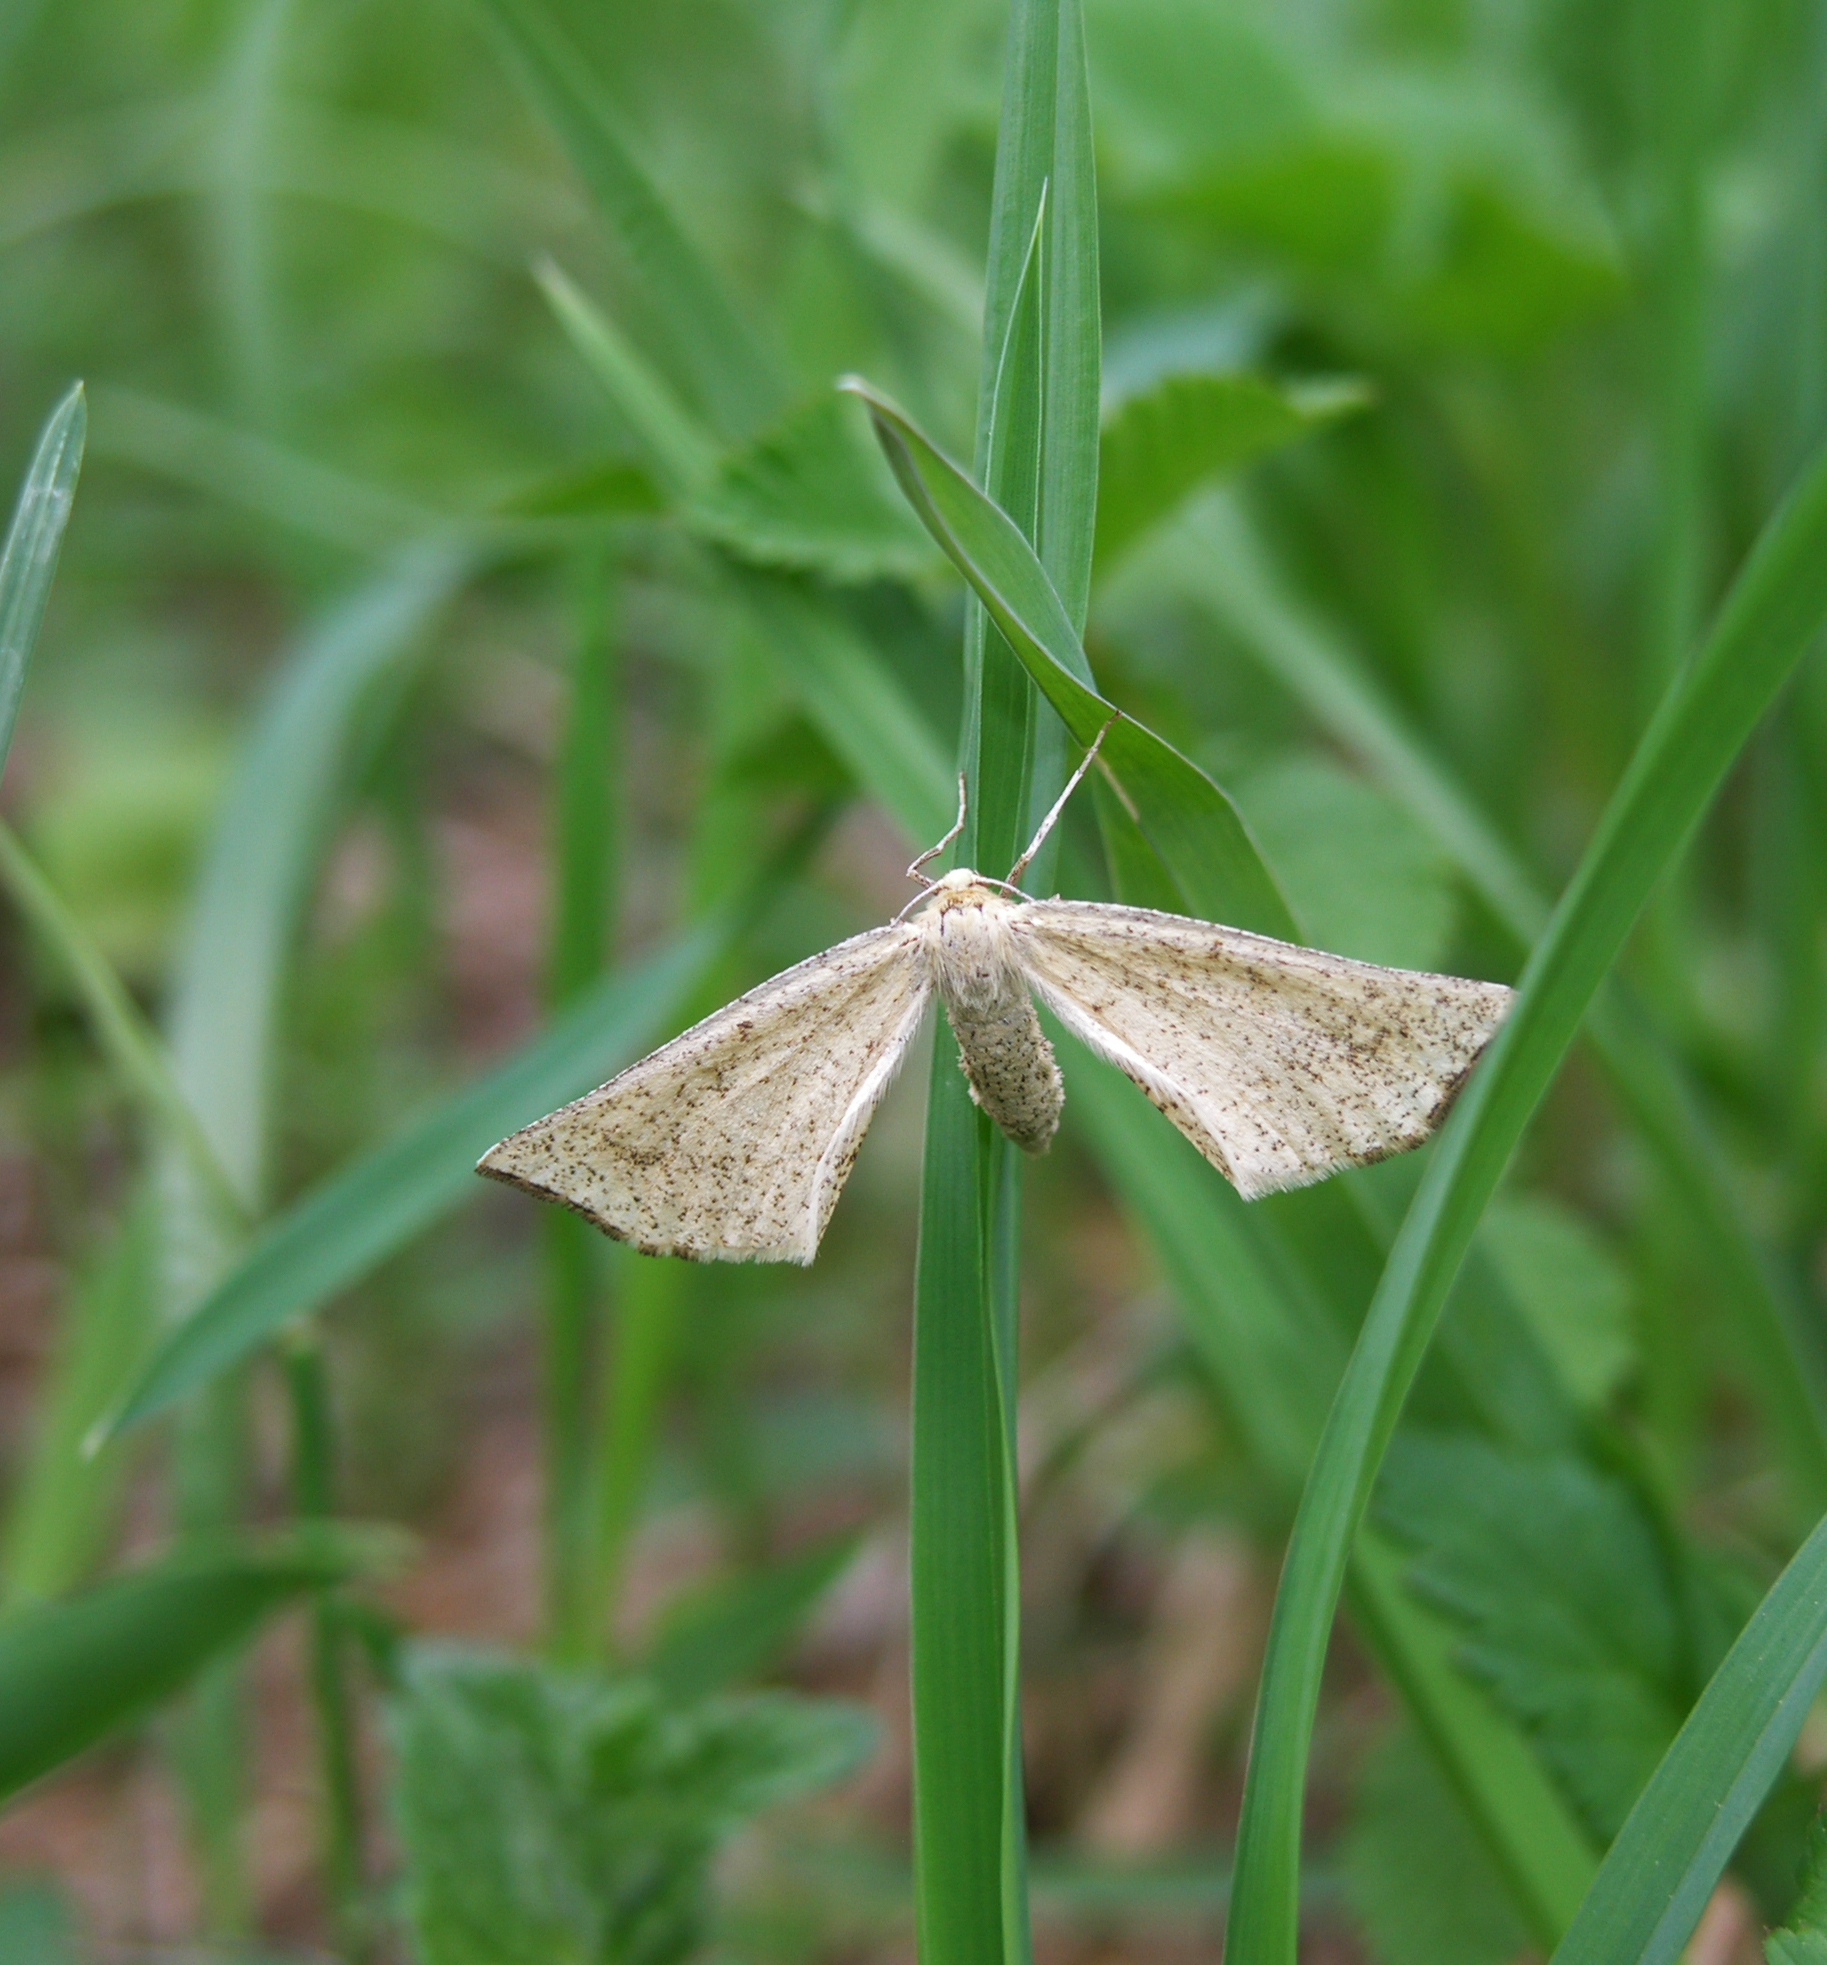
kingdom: Animalia
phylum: Arthropoda
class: Insecta
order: Lepidoptera
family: Geometridae
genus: Hypoxystis
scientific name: Hypoxystis pluviaria
